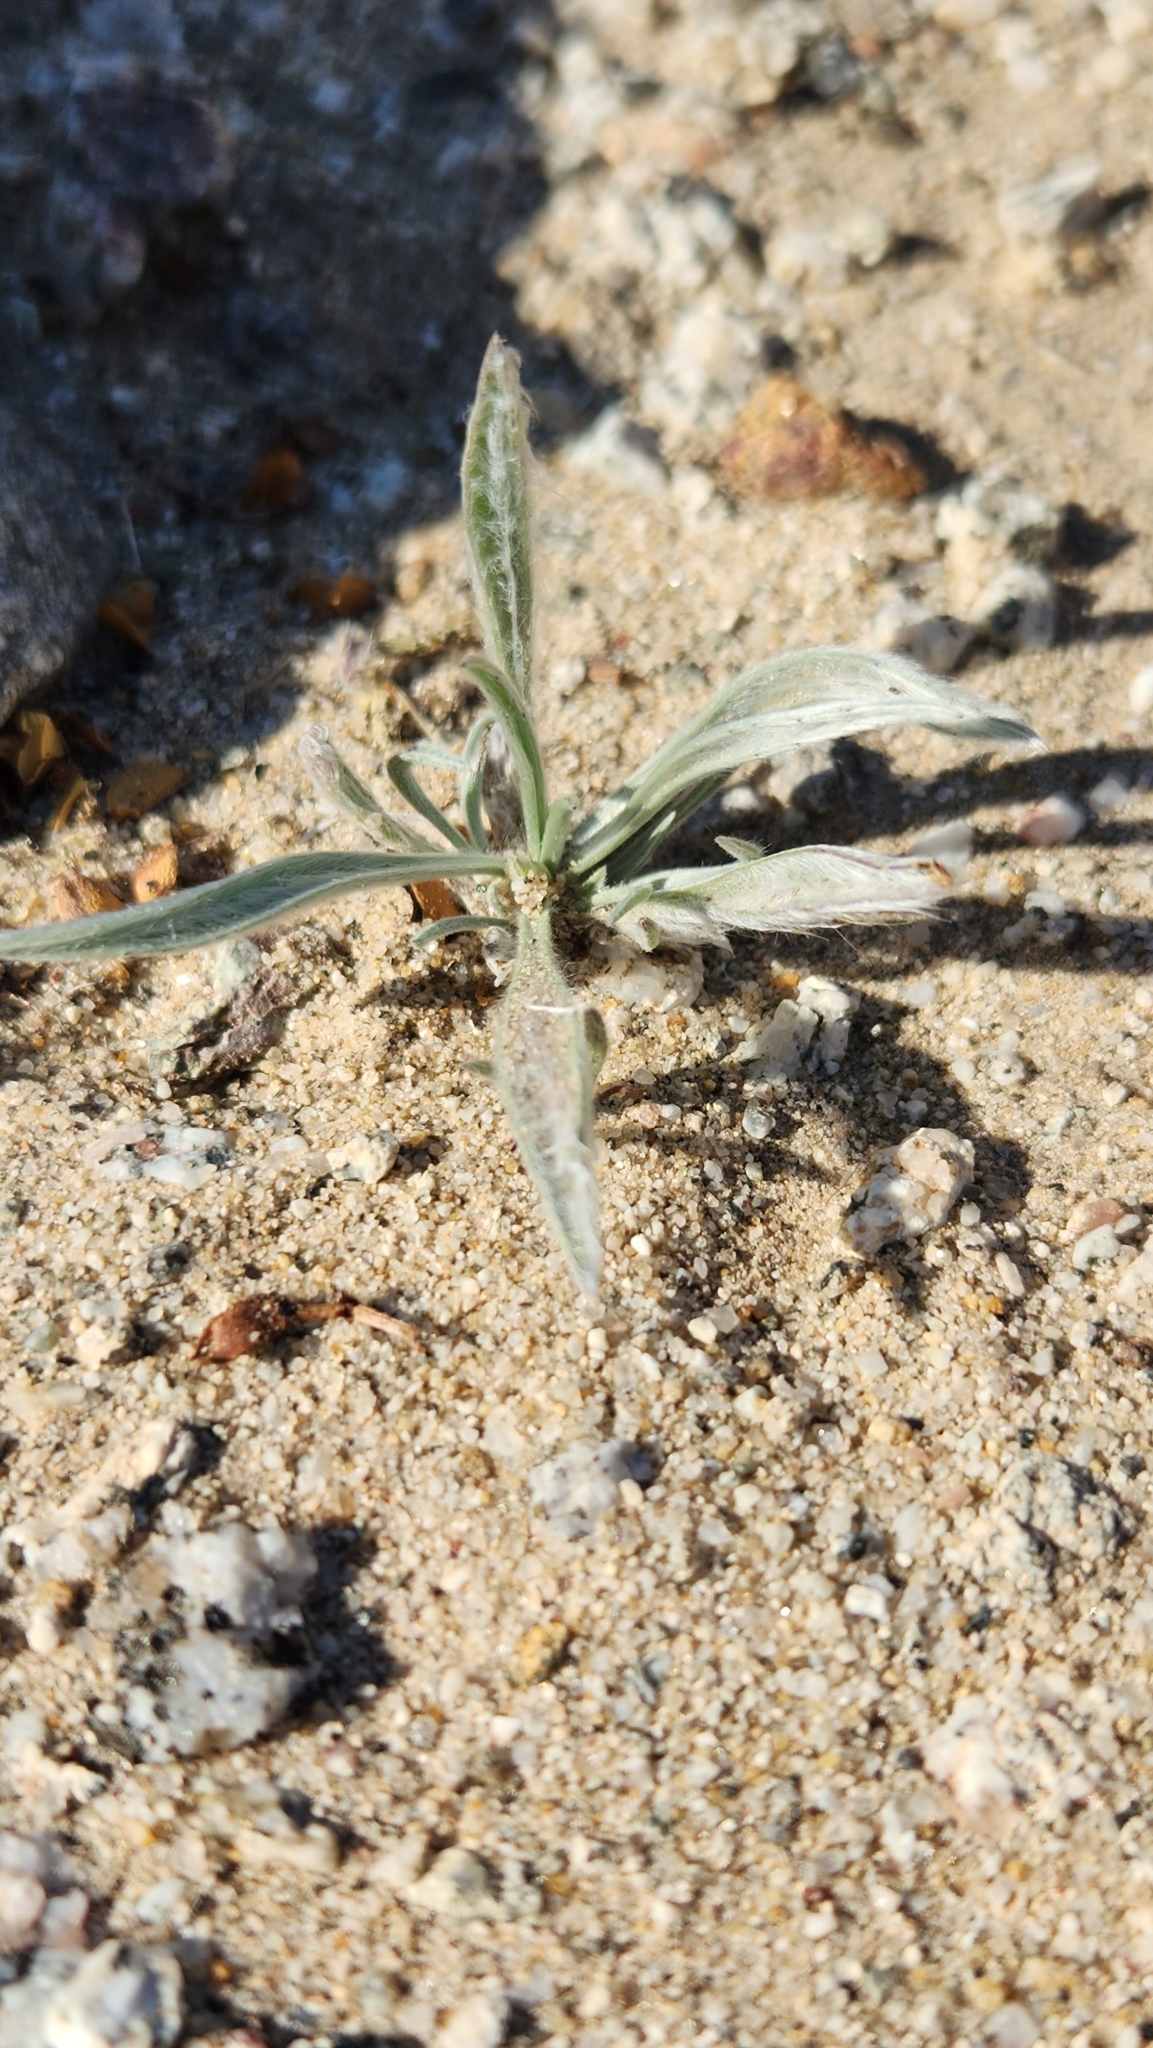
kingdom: Plantae
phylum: Tracheophyta
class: Magnoliopsida
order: Lamiales
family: Plantaginaceae
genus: Plantago
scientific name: Plantago ovata
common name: Blond plantain
